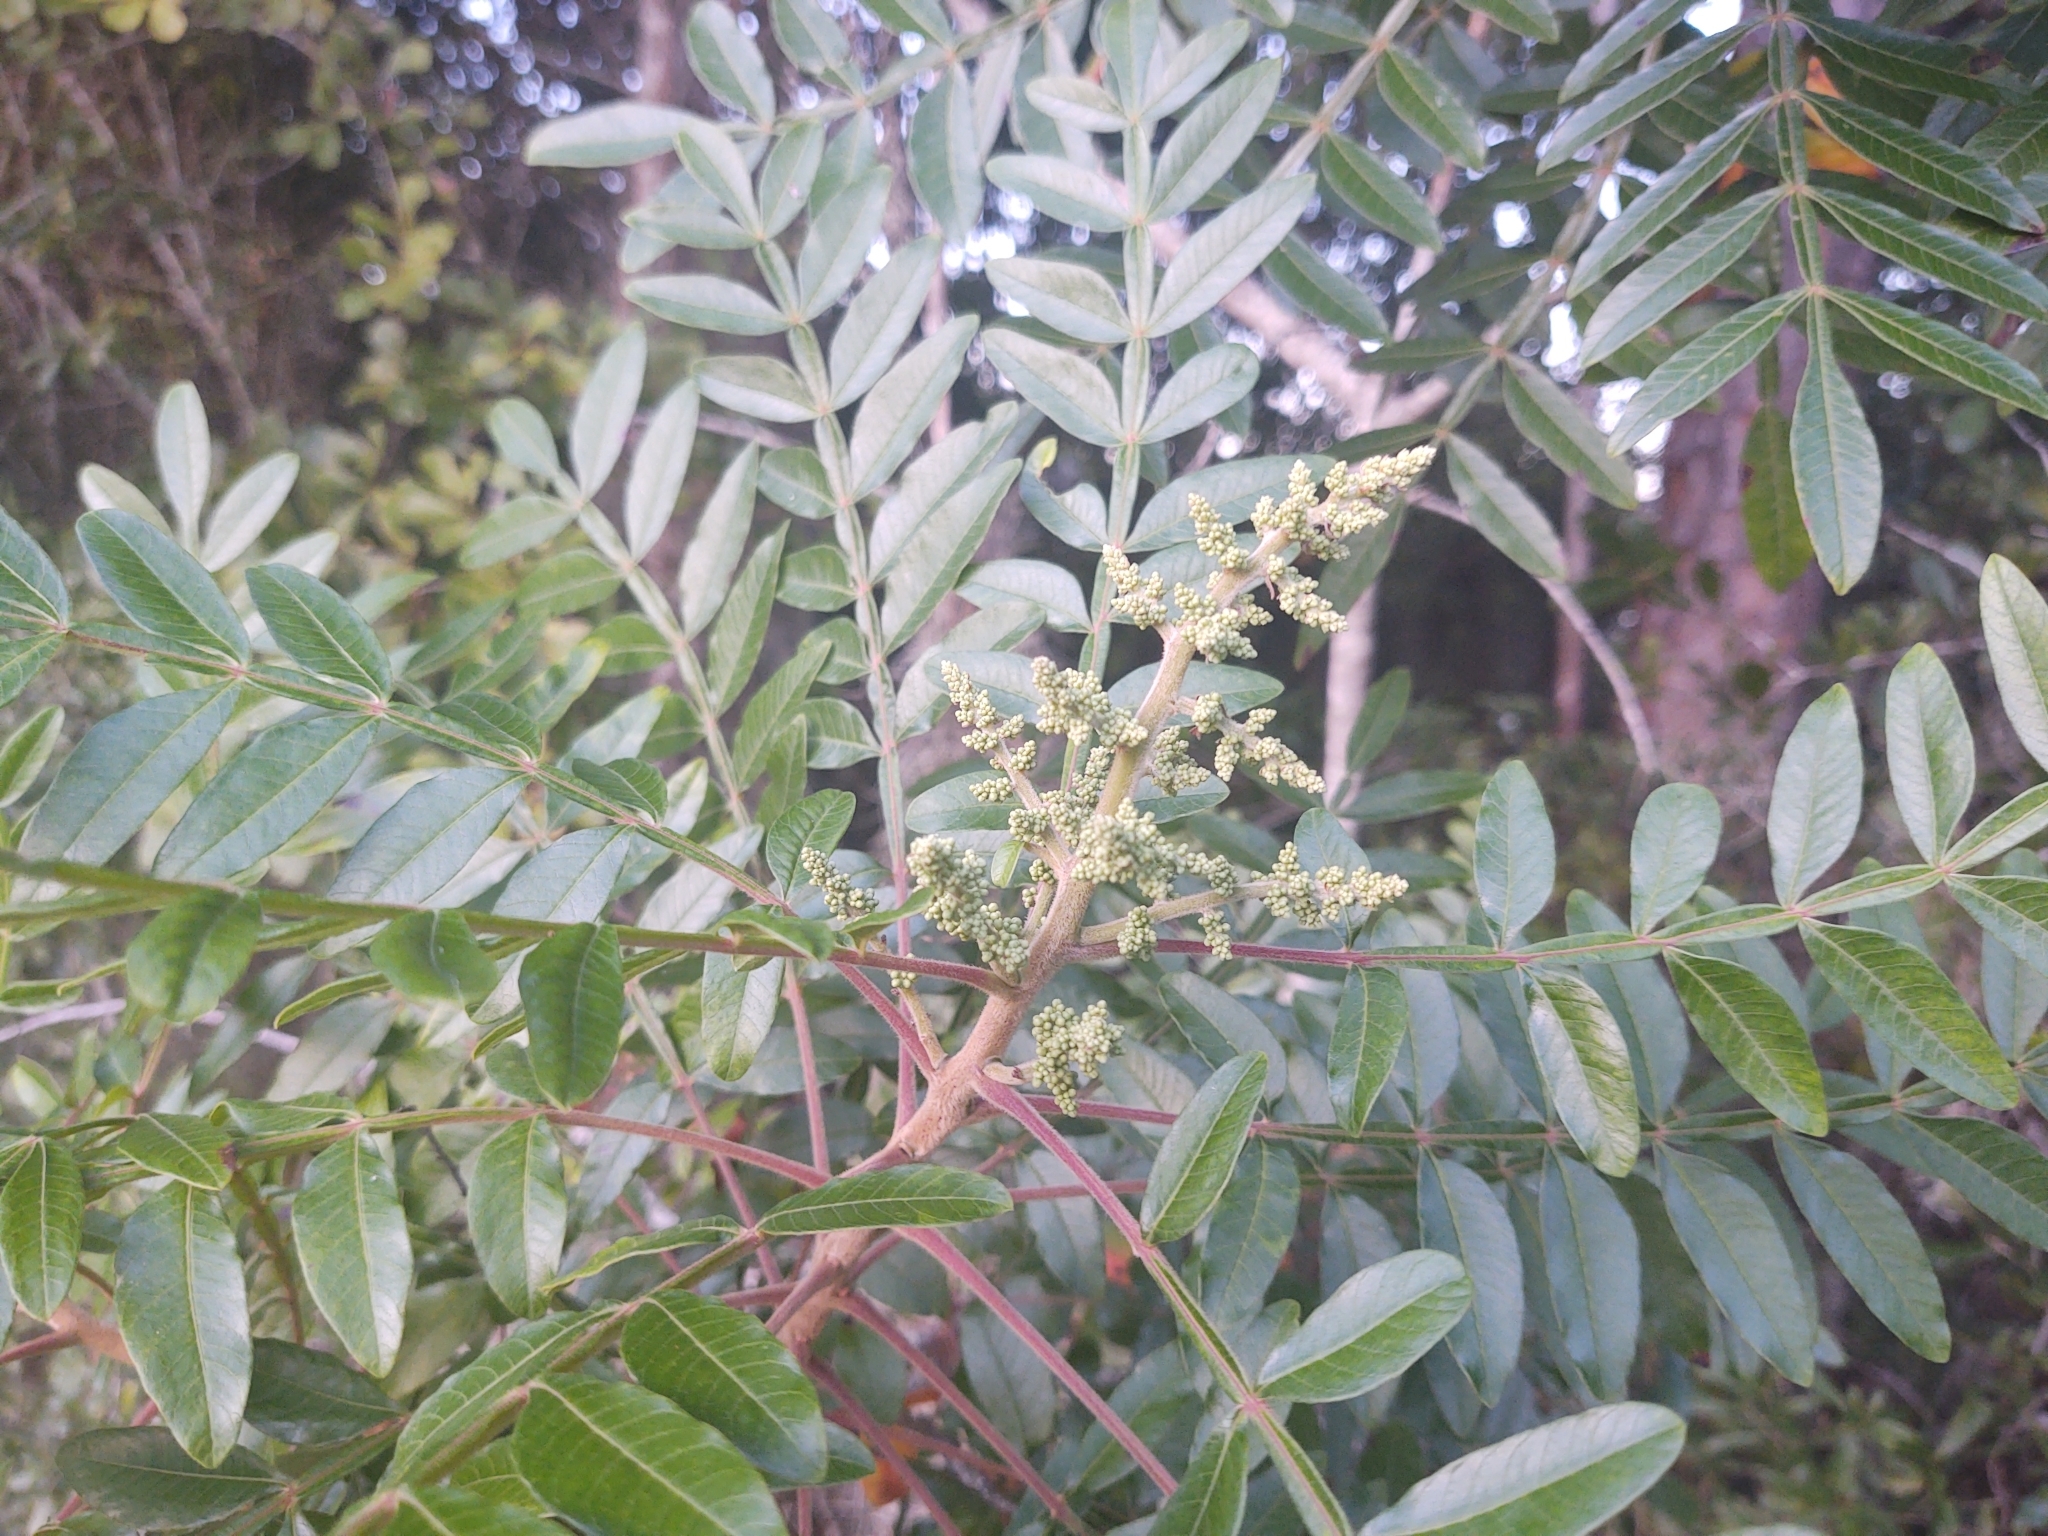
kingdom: Plantae
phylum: Tracheophyta
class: Magnoliopsida
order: Sapindales
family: Anacardiaceae
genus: Rhus
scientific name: Rhus copallina
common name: Shining sumac
